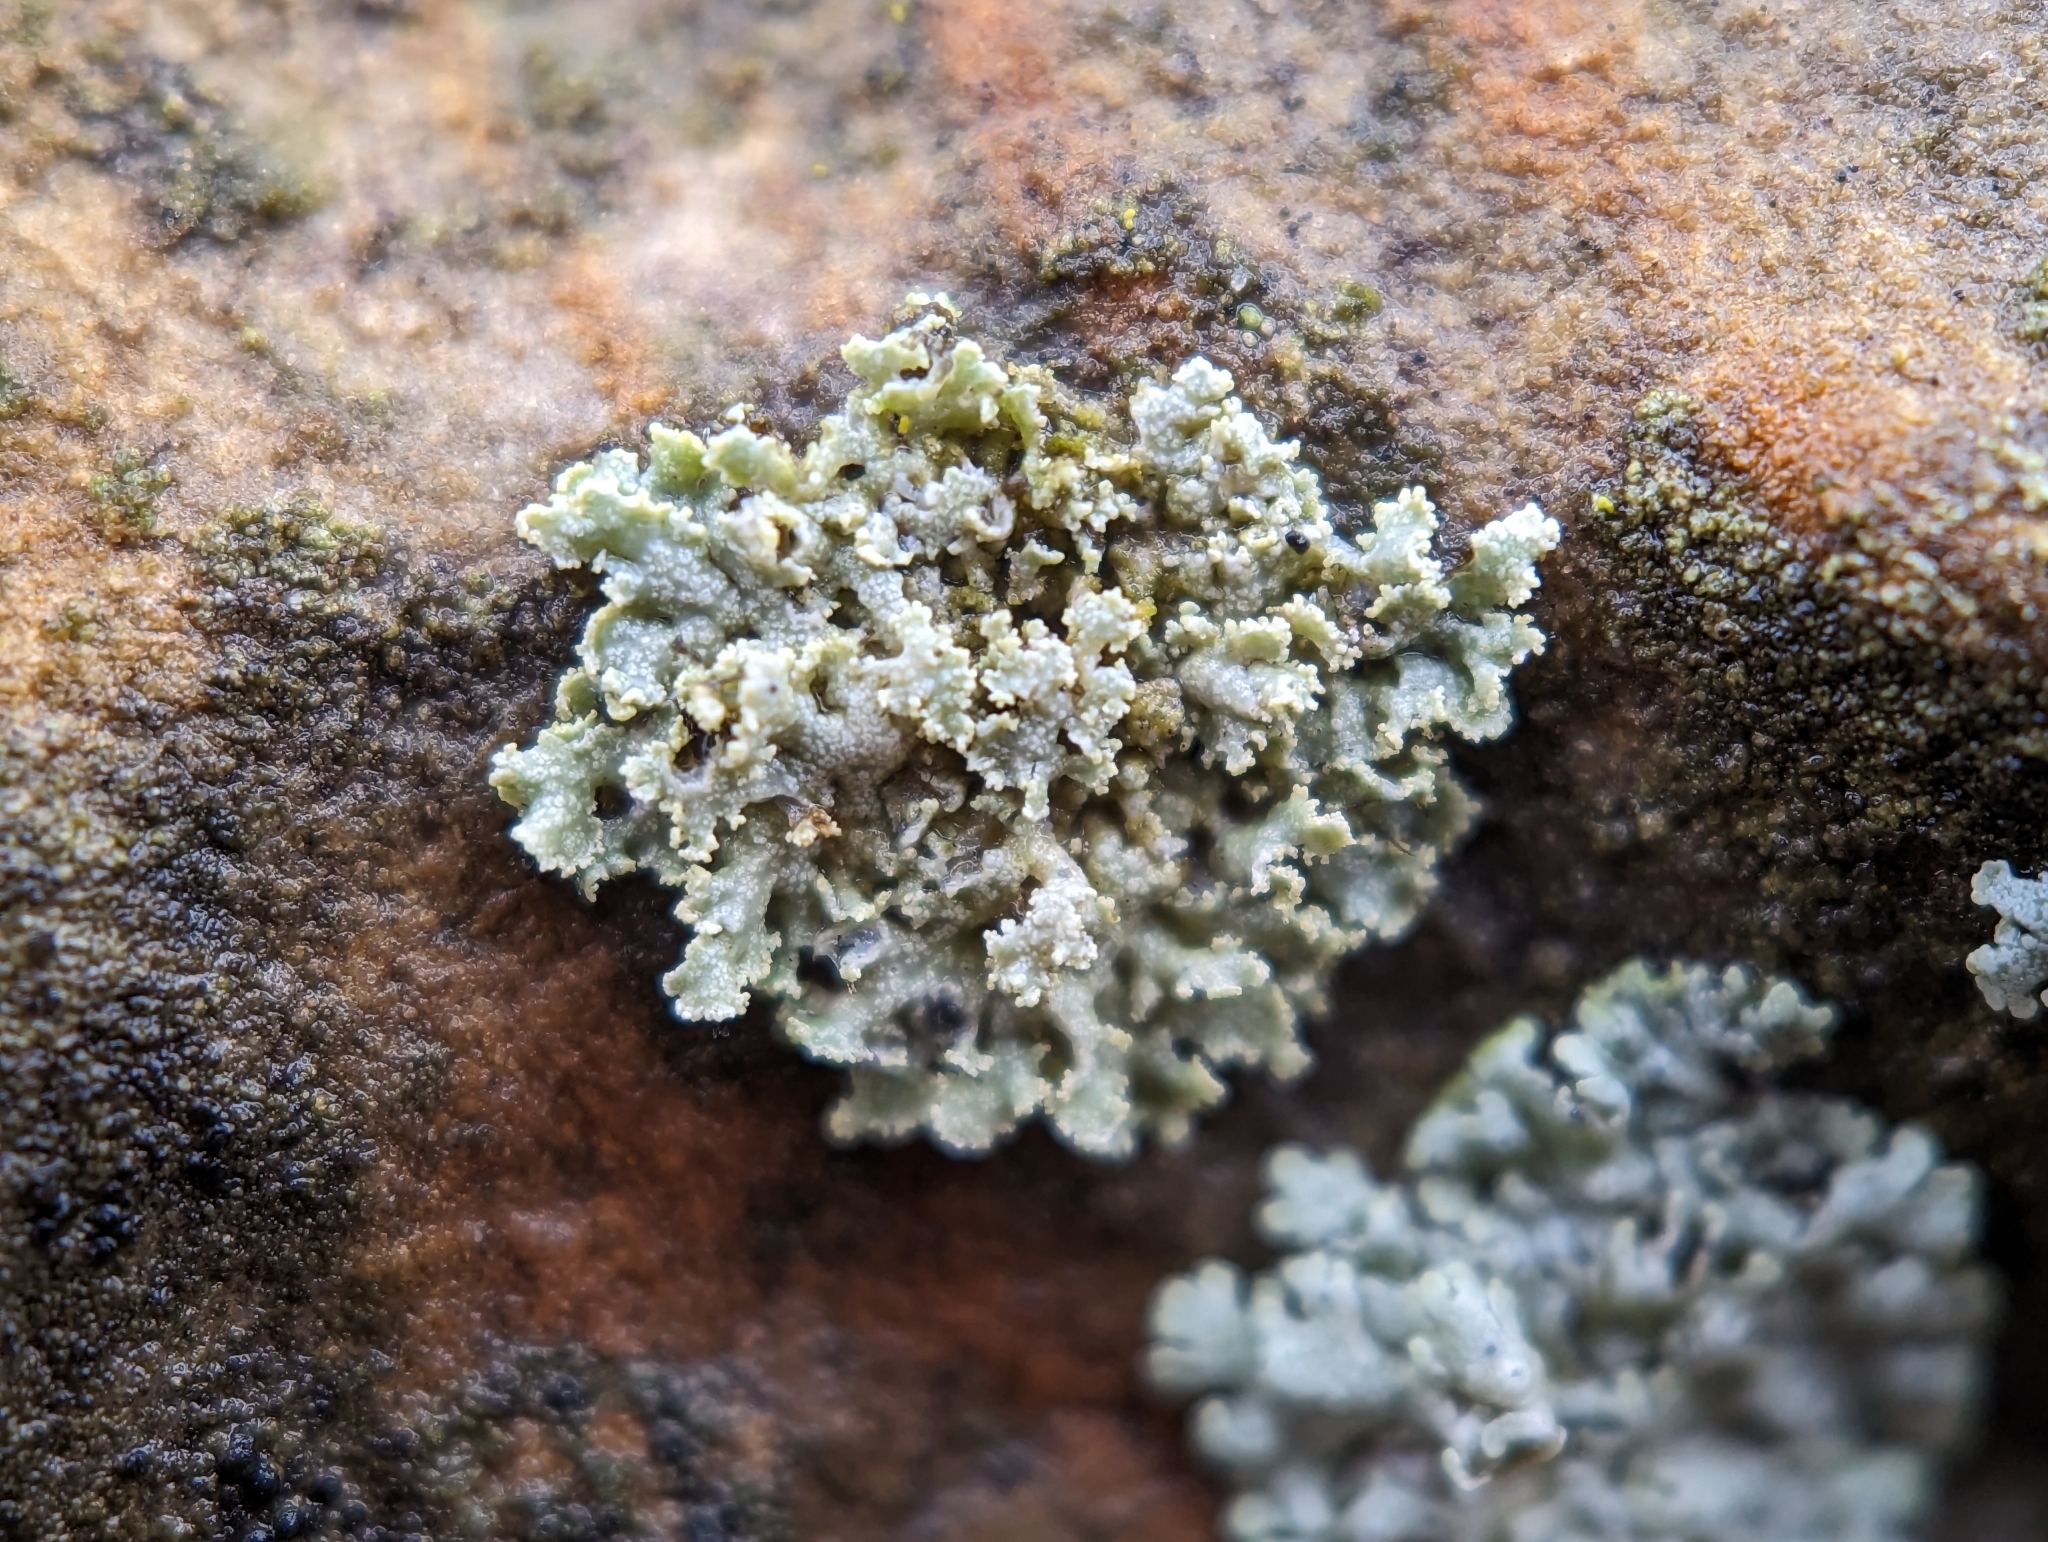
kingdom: Fungi
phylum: Ascomycota
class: Lecanoromycetes
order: Caliciales
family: Physciaceae
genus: Physcia
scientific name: Physcia millegrana
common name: Rosette lichen
